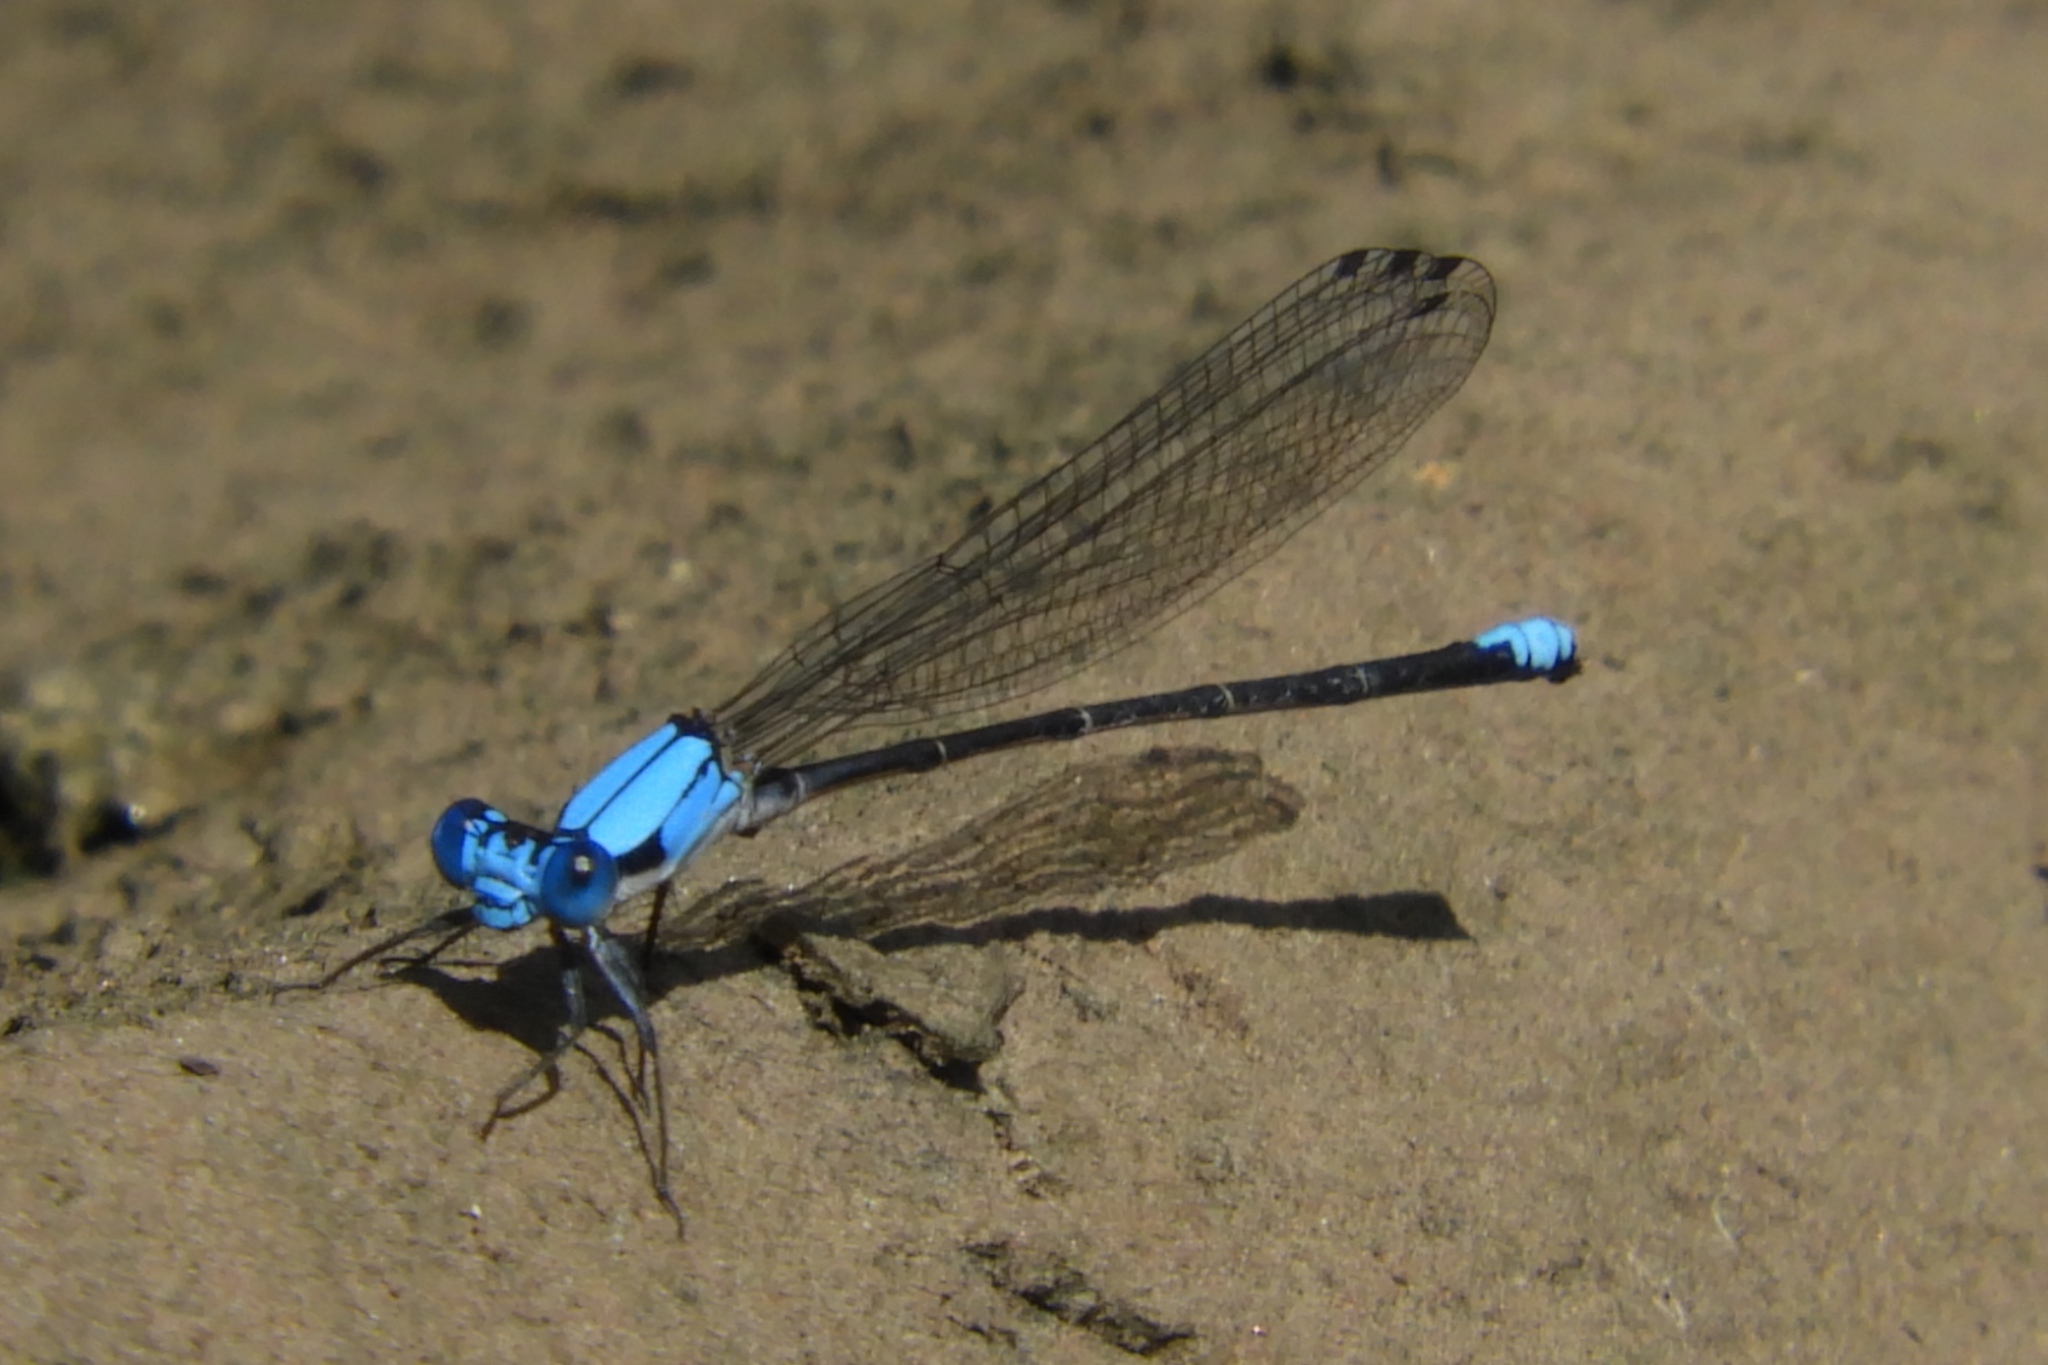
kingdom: Animalia
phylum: Arthropoda
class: Insecta
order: Odonata
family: Coenagrionidae
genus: Argia
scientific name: Argia apicalis
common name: Blue-fronted dancer
